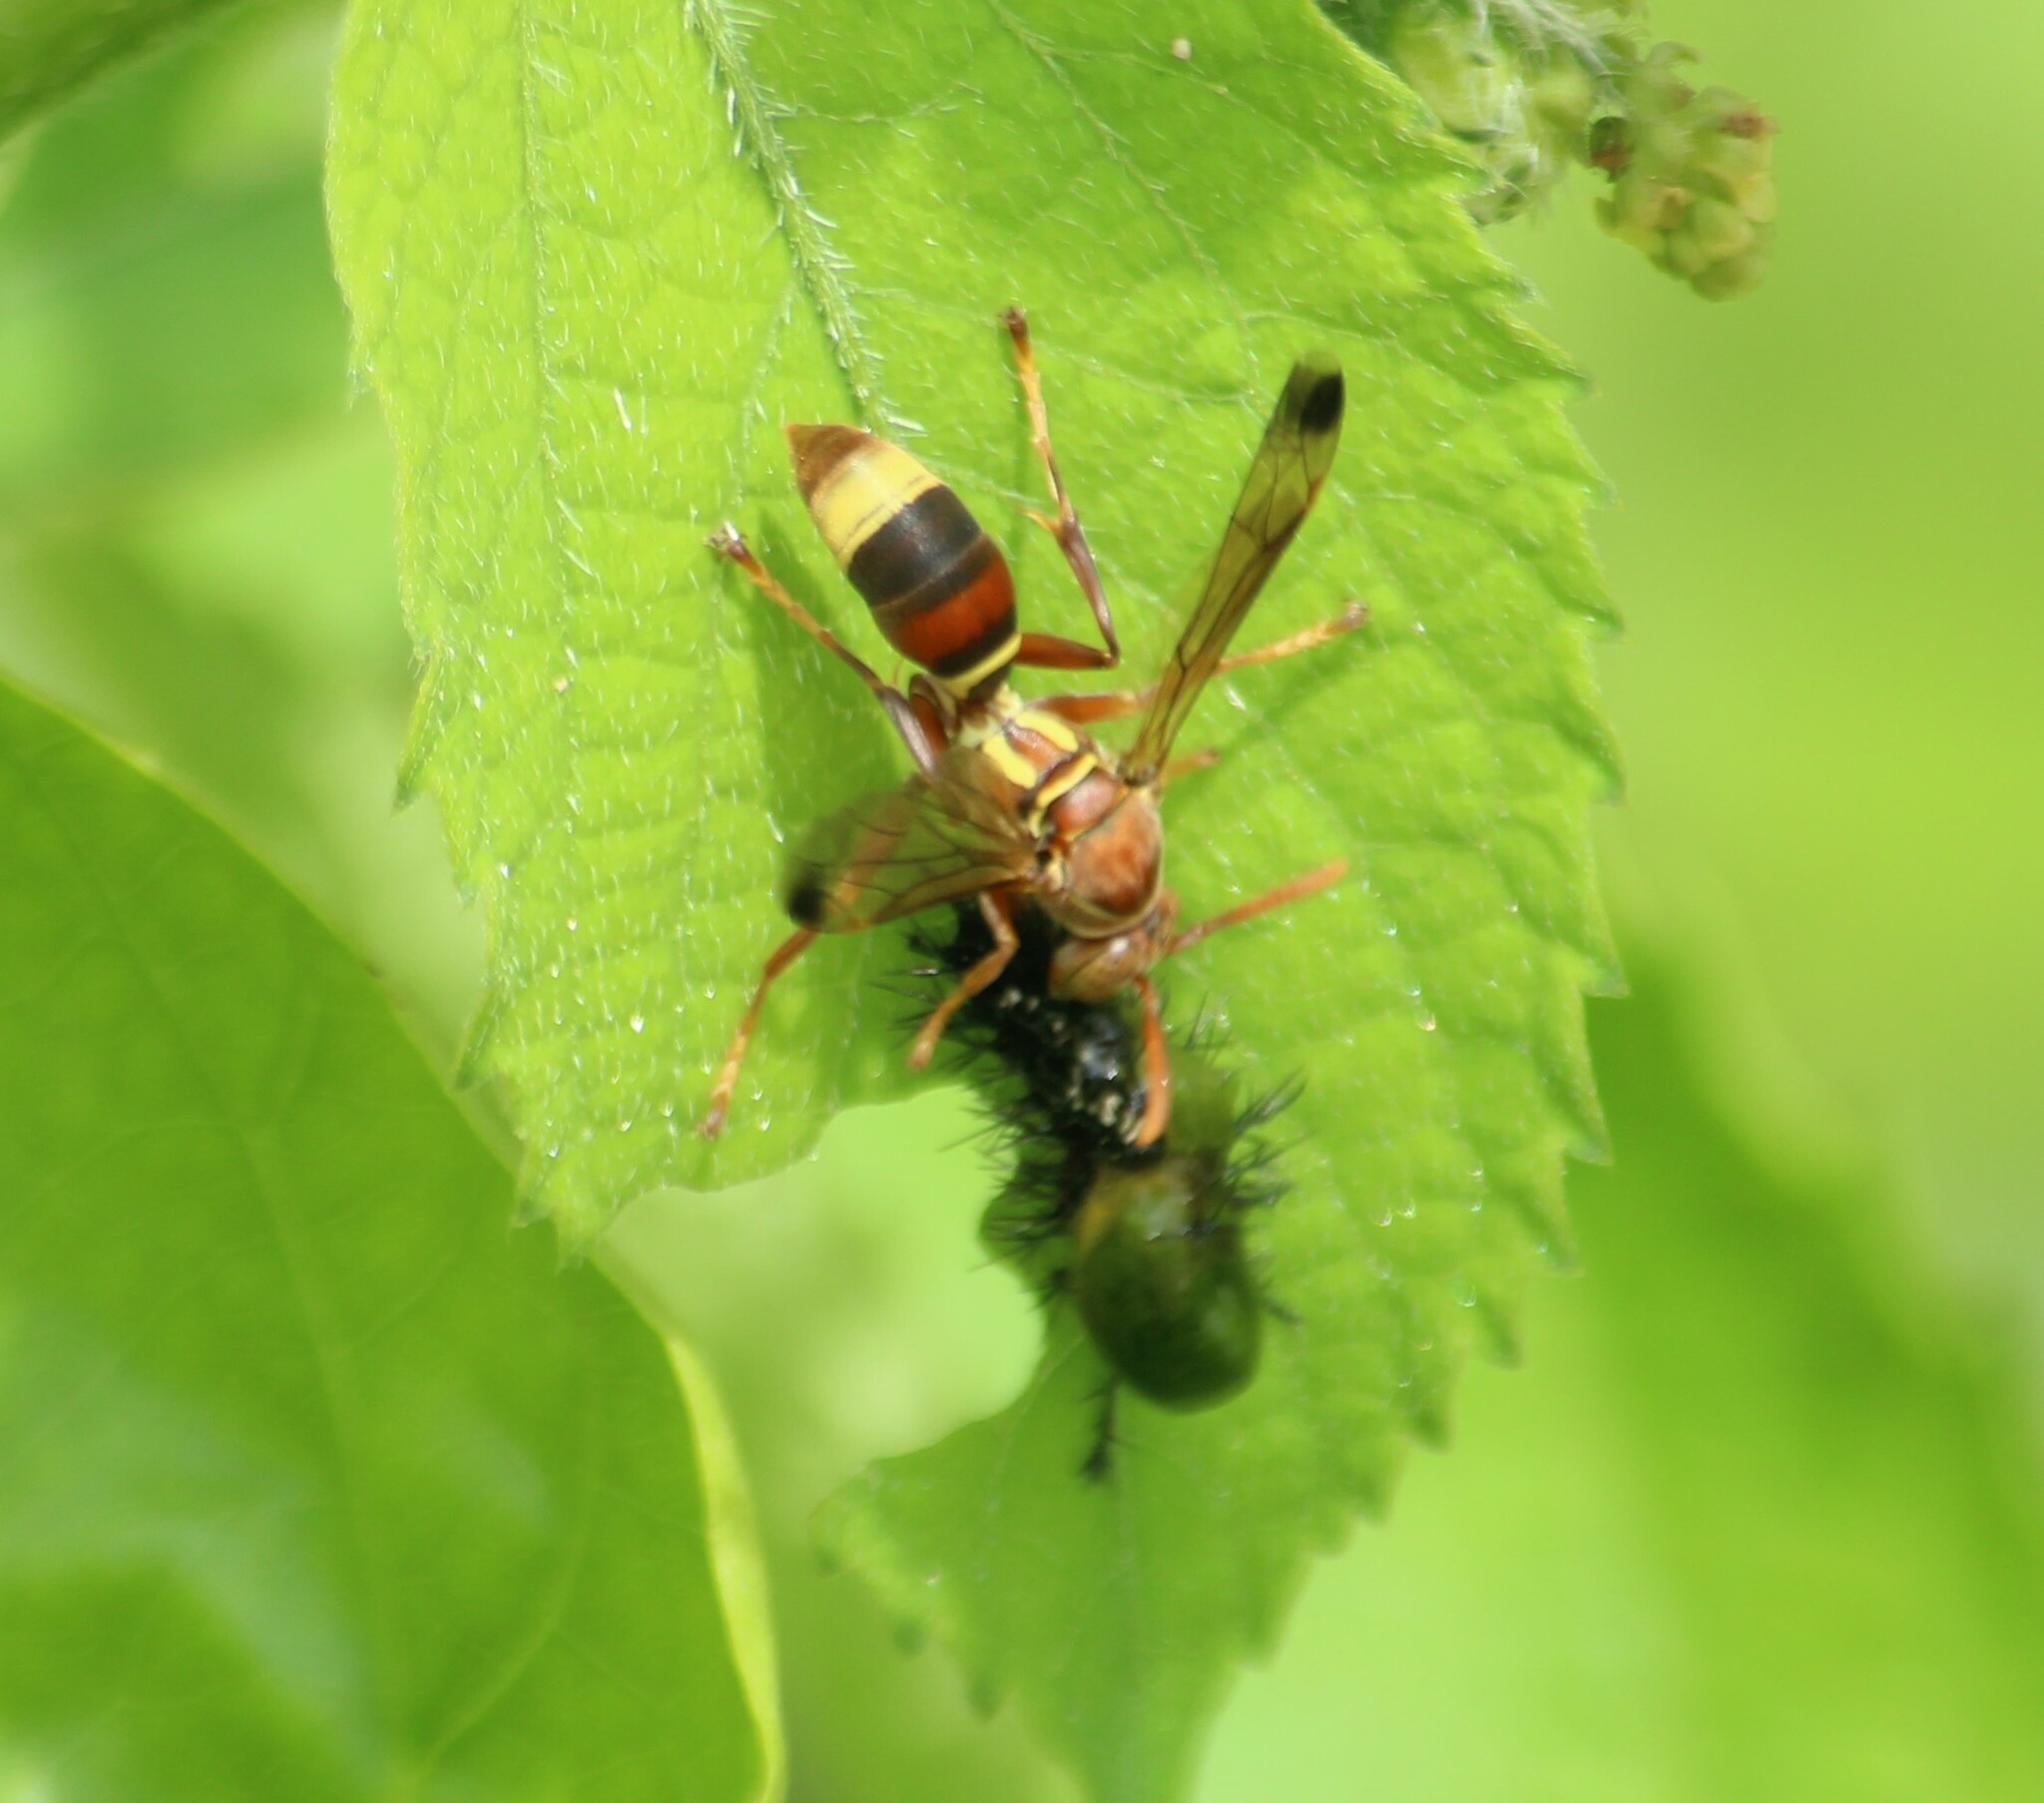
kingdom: Animalia
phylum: Arthropoda
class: Insecta
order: Hymenoptera
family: Eumenidae
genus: Polistes
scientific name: Polistes stigma
